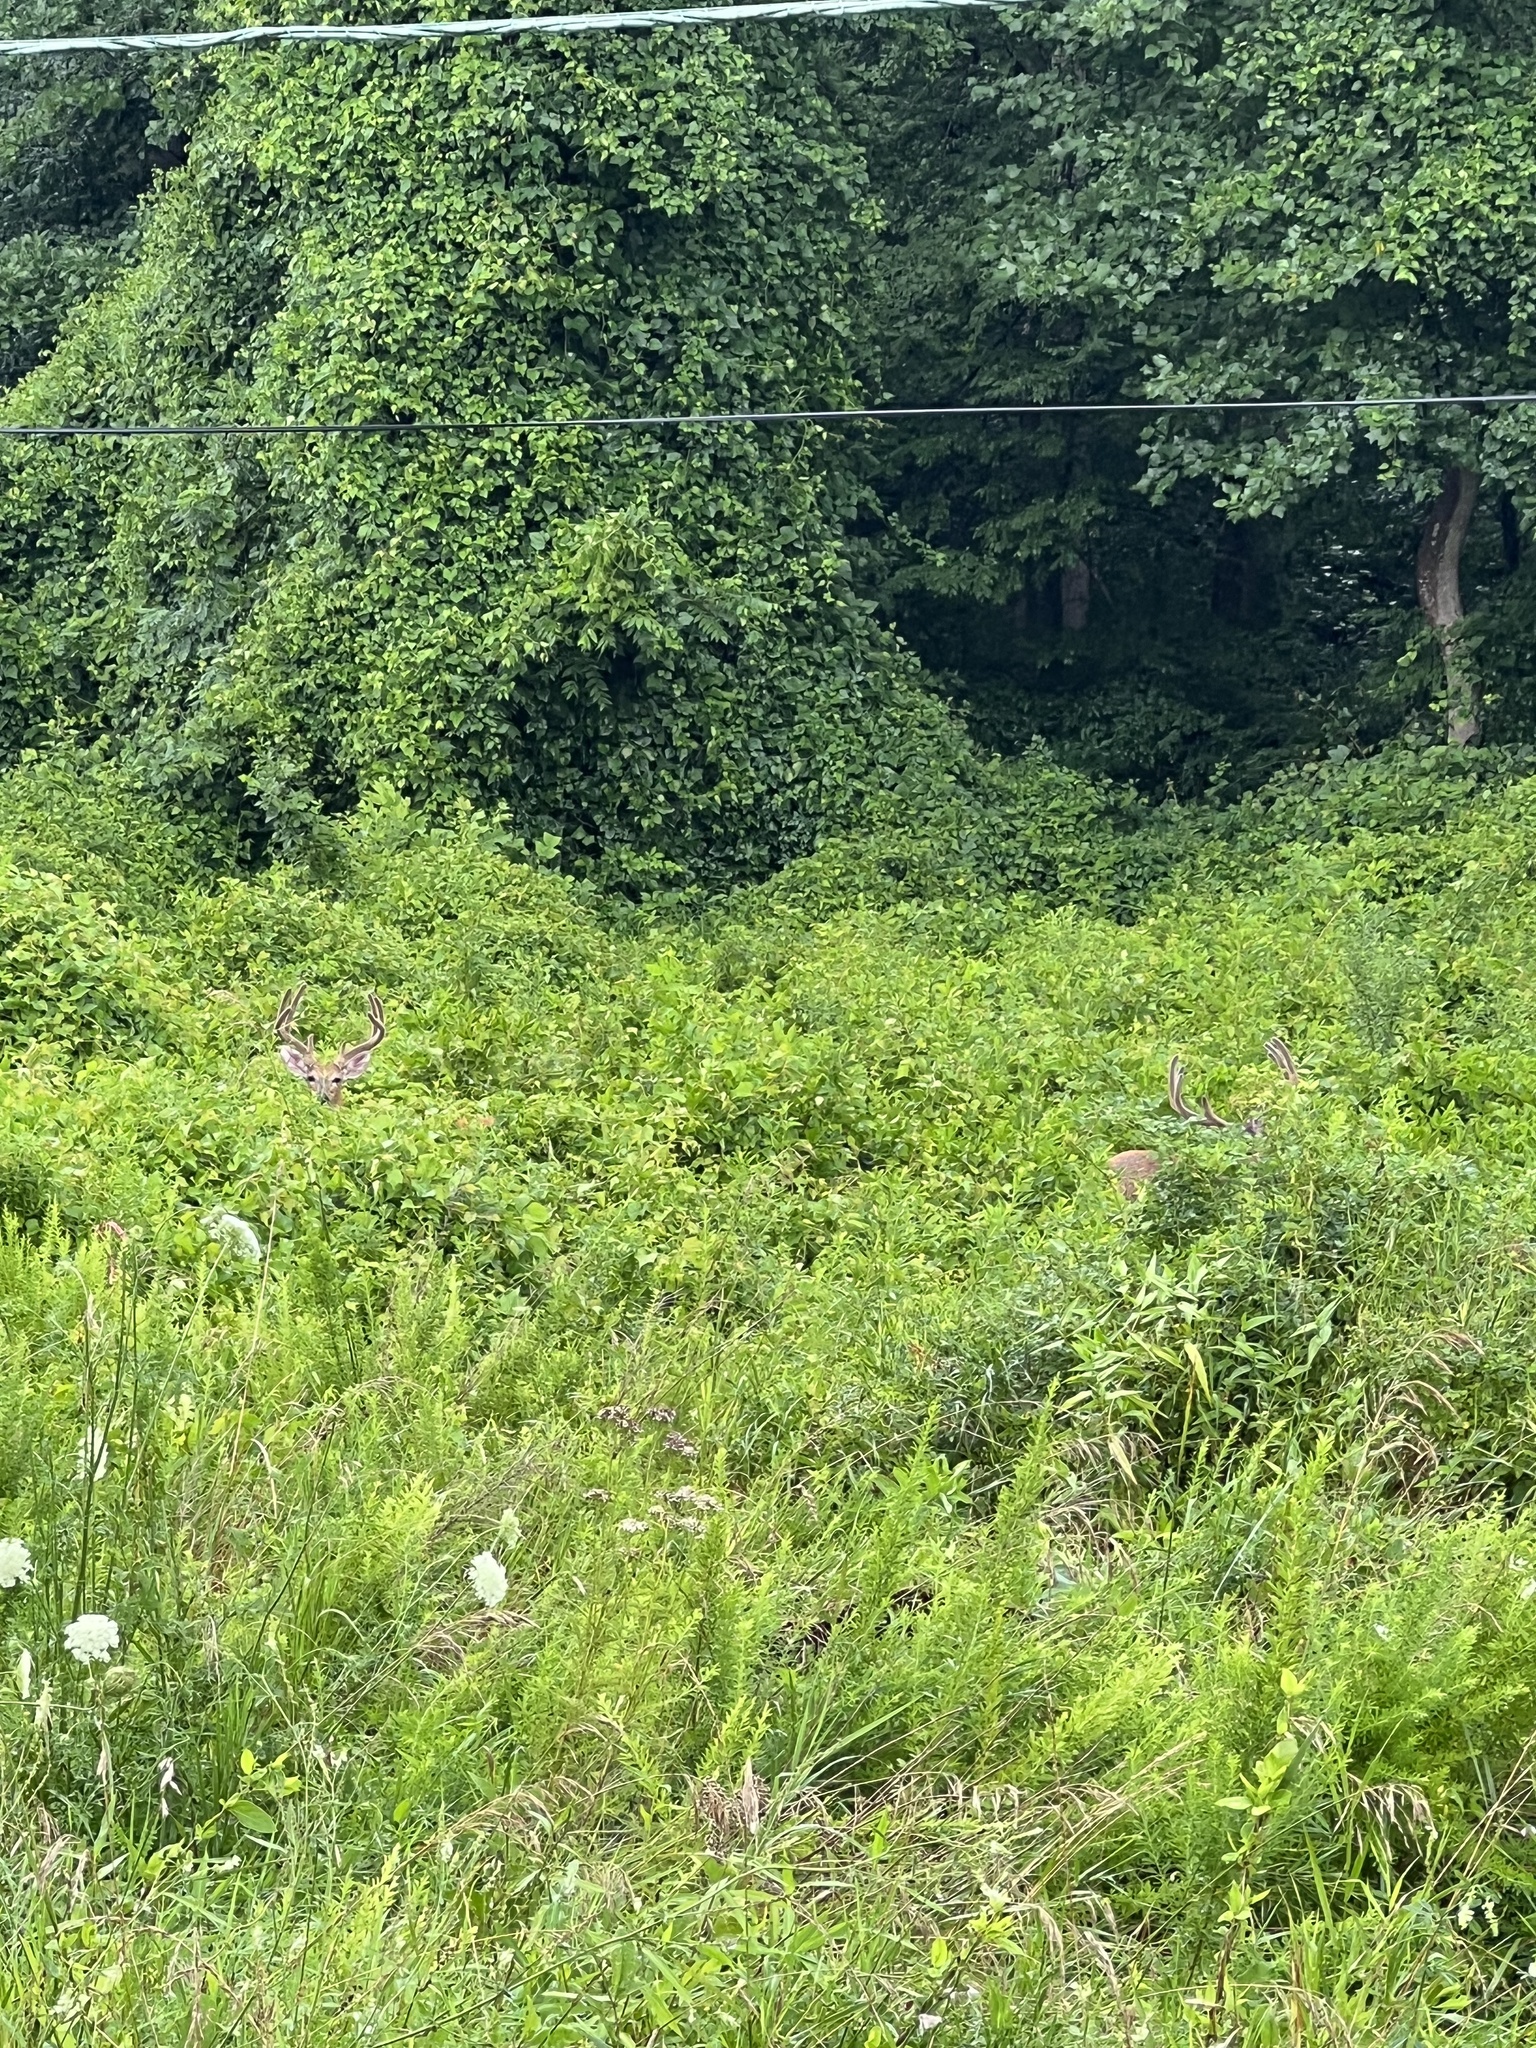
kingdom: Animalia
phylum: Chordata
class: Mammalia
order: Artiodactyla
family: Cervidae
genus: Odocoileus
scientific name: Odocoileus virginianus
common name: White-tailed deer
